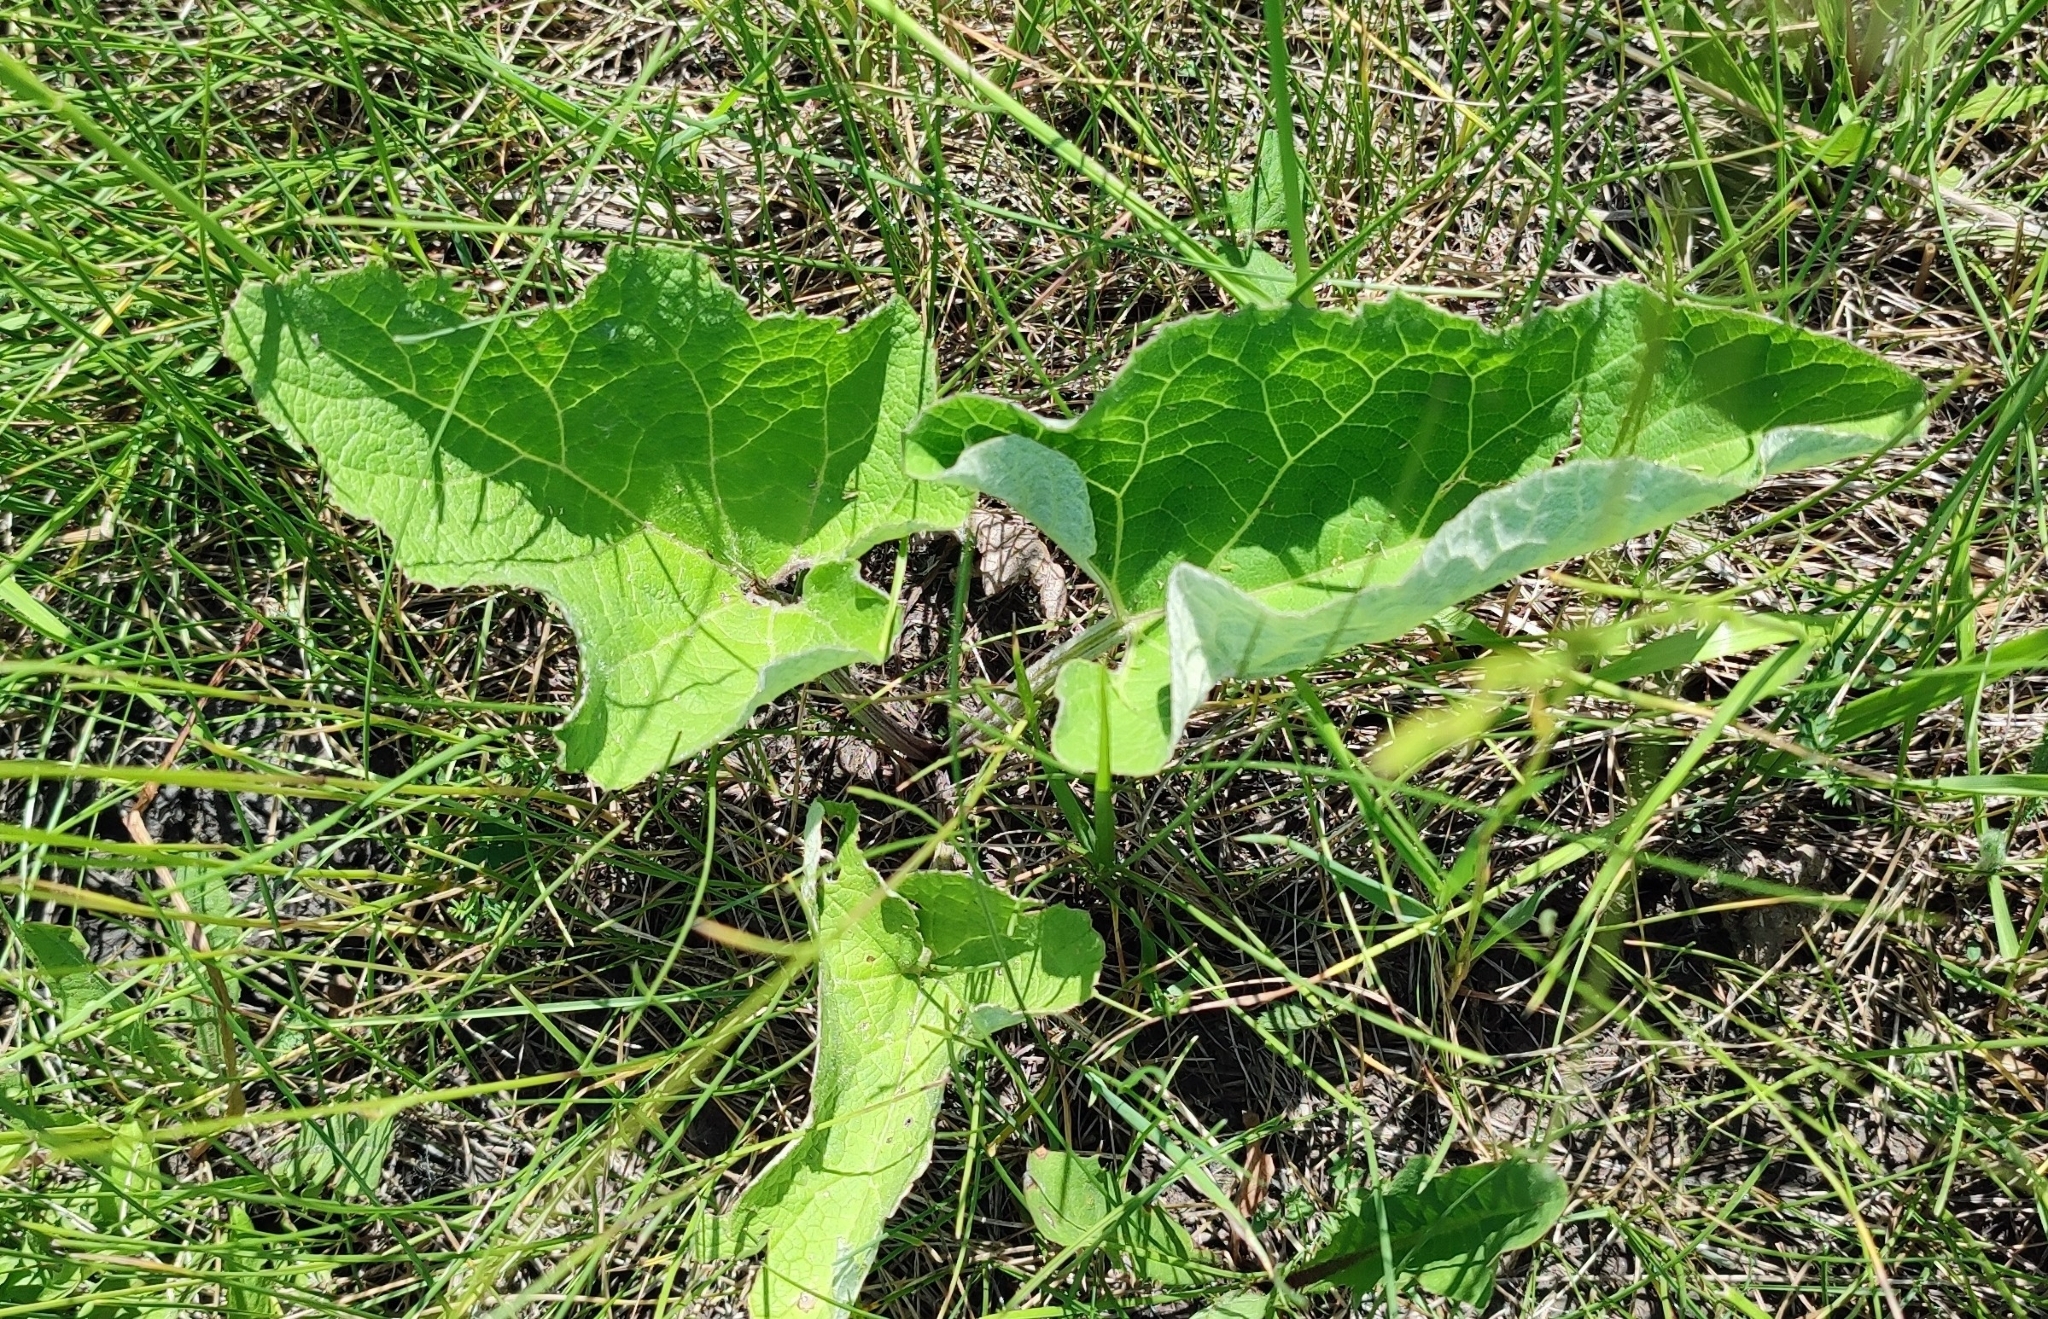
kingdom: Plantae
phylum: Tracheophyta
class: Magnoliopsida
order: Asterales
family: Asteraceae
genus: Arctium
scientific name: Arctium tomentosum
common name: Woolly burdock
